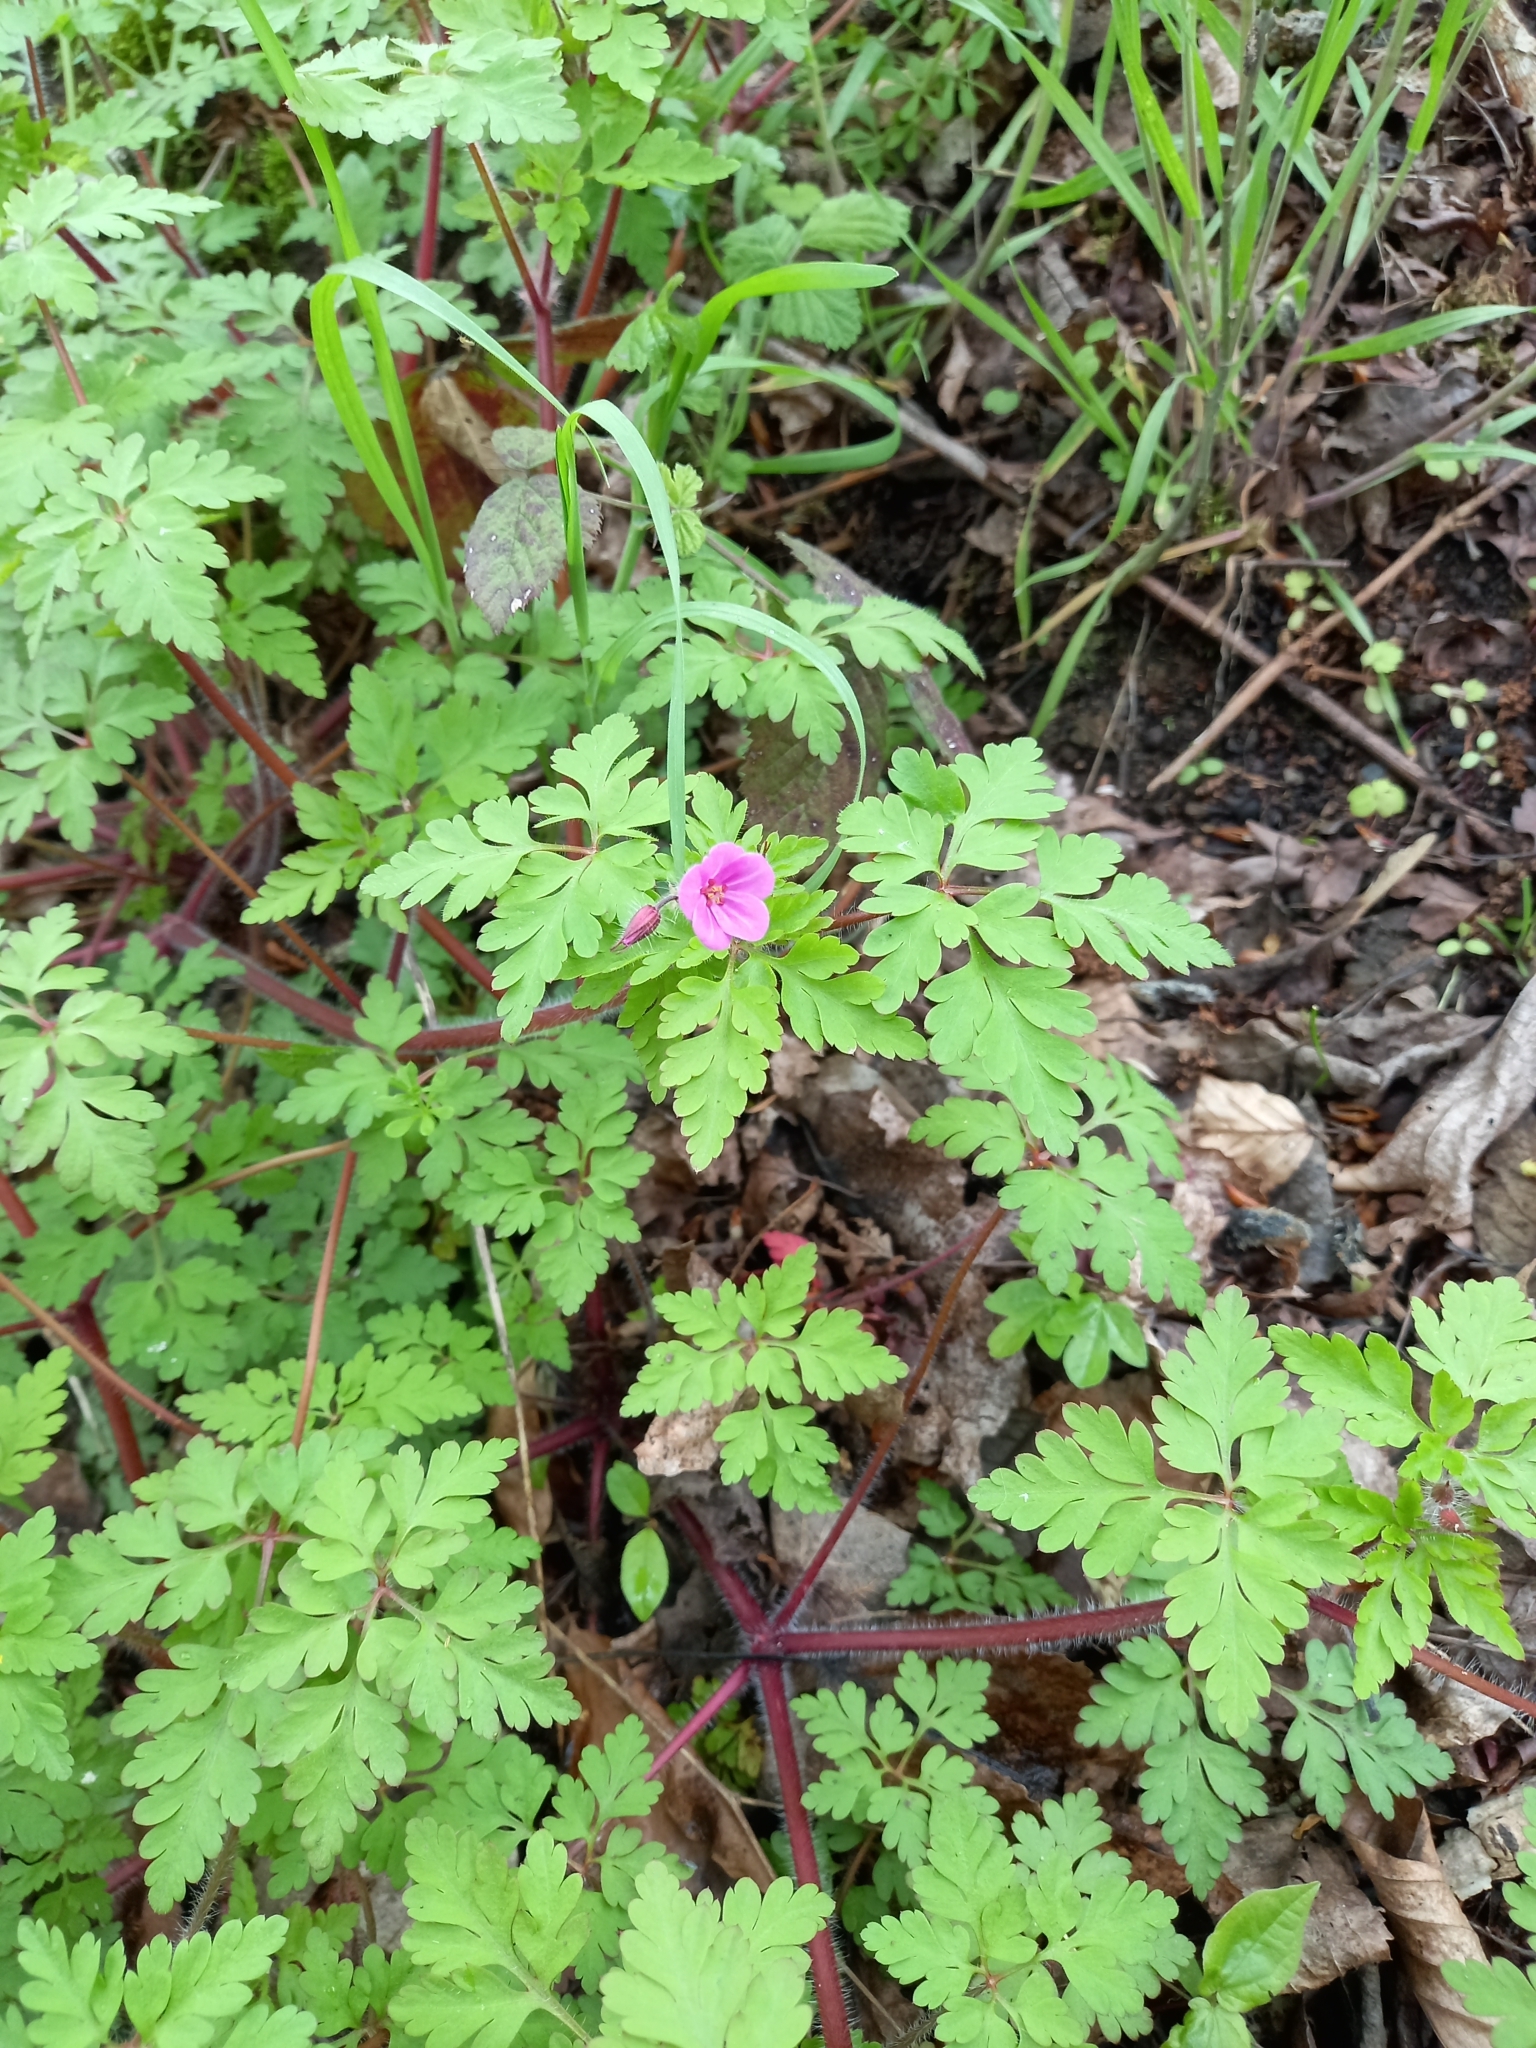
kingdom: Plantae
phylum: Tracheophyta
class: Magnoliopsida
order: Geraniales
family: Geraniaceae
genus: Geranium
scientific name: Geranium robertianum
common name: Herb-robert
